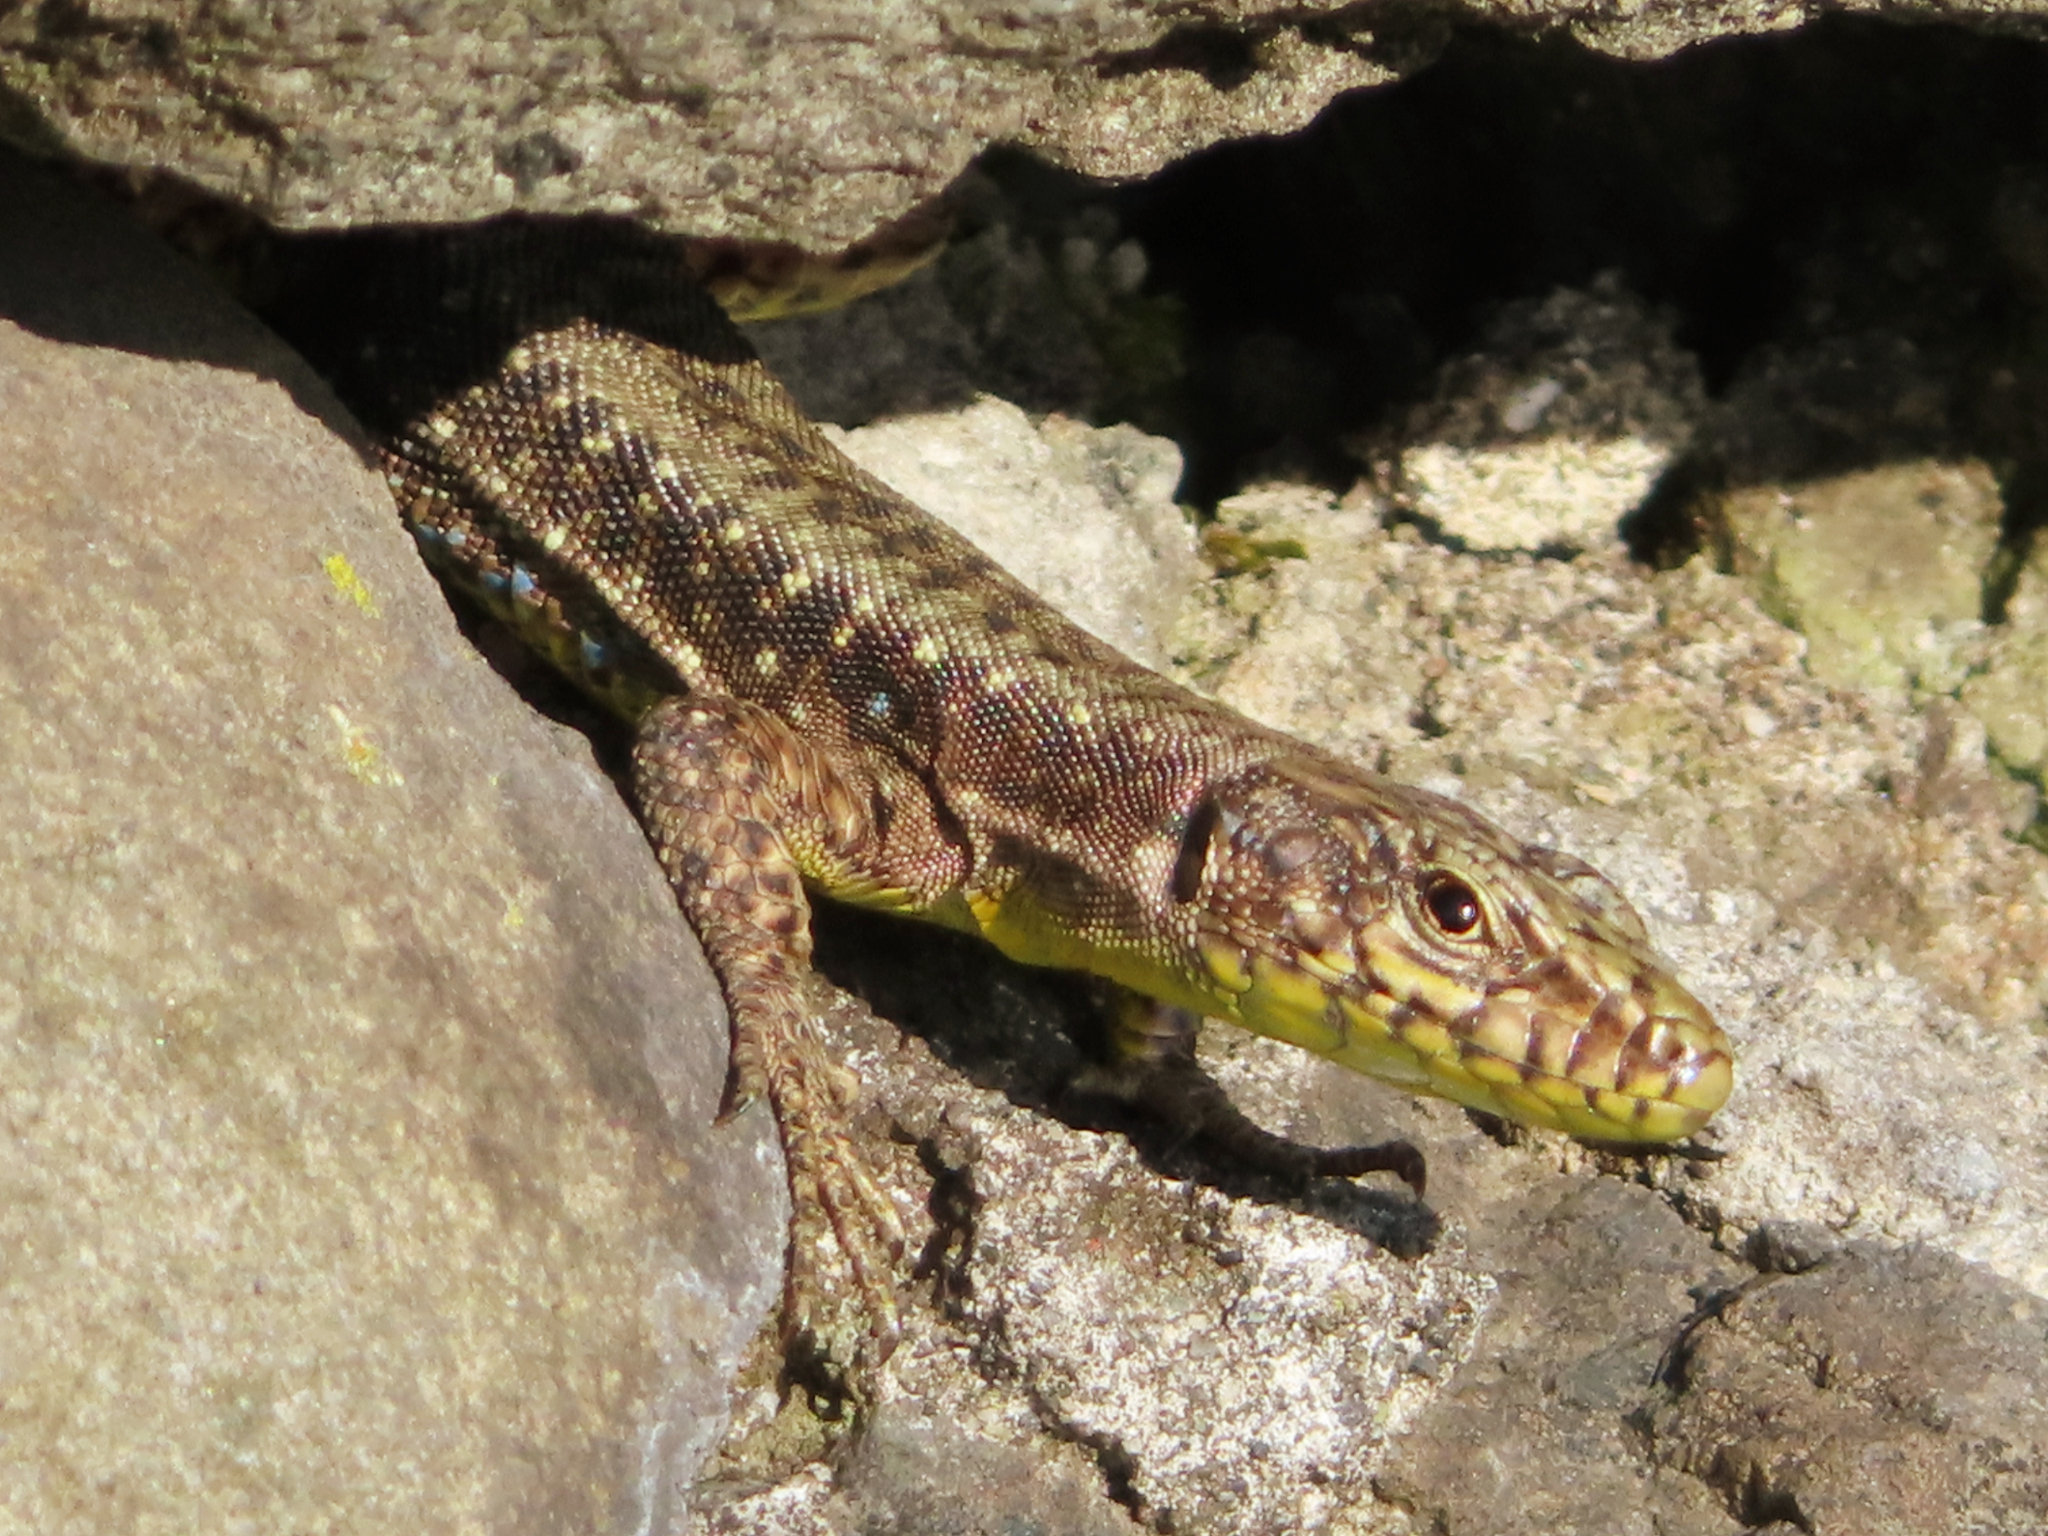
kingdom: Animalia
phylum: Chordata
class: Squamata
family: Lacertidae
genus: Darevskia
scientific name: Darevskia rudis
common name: Spiny-tailed lizard
